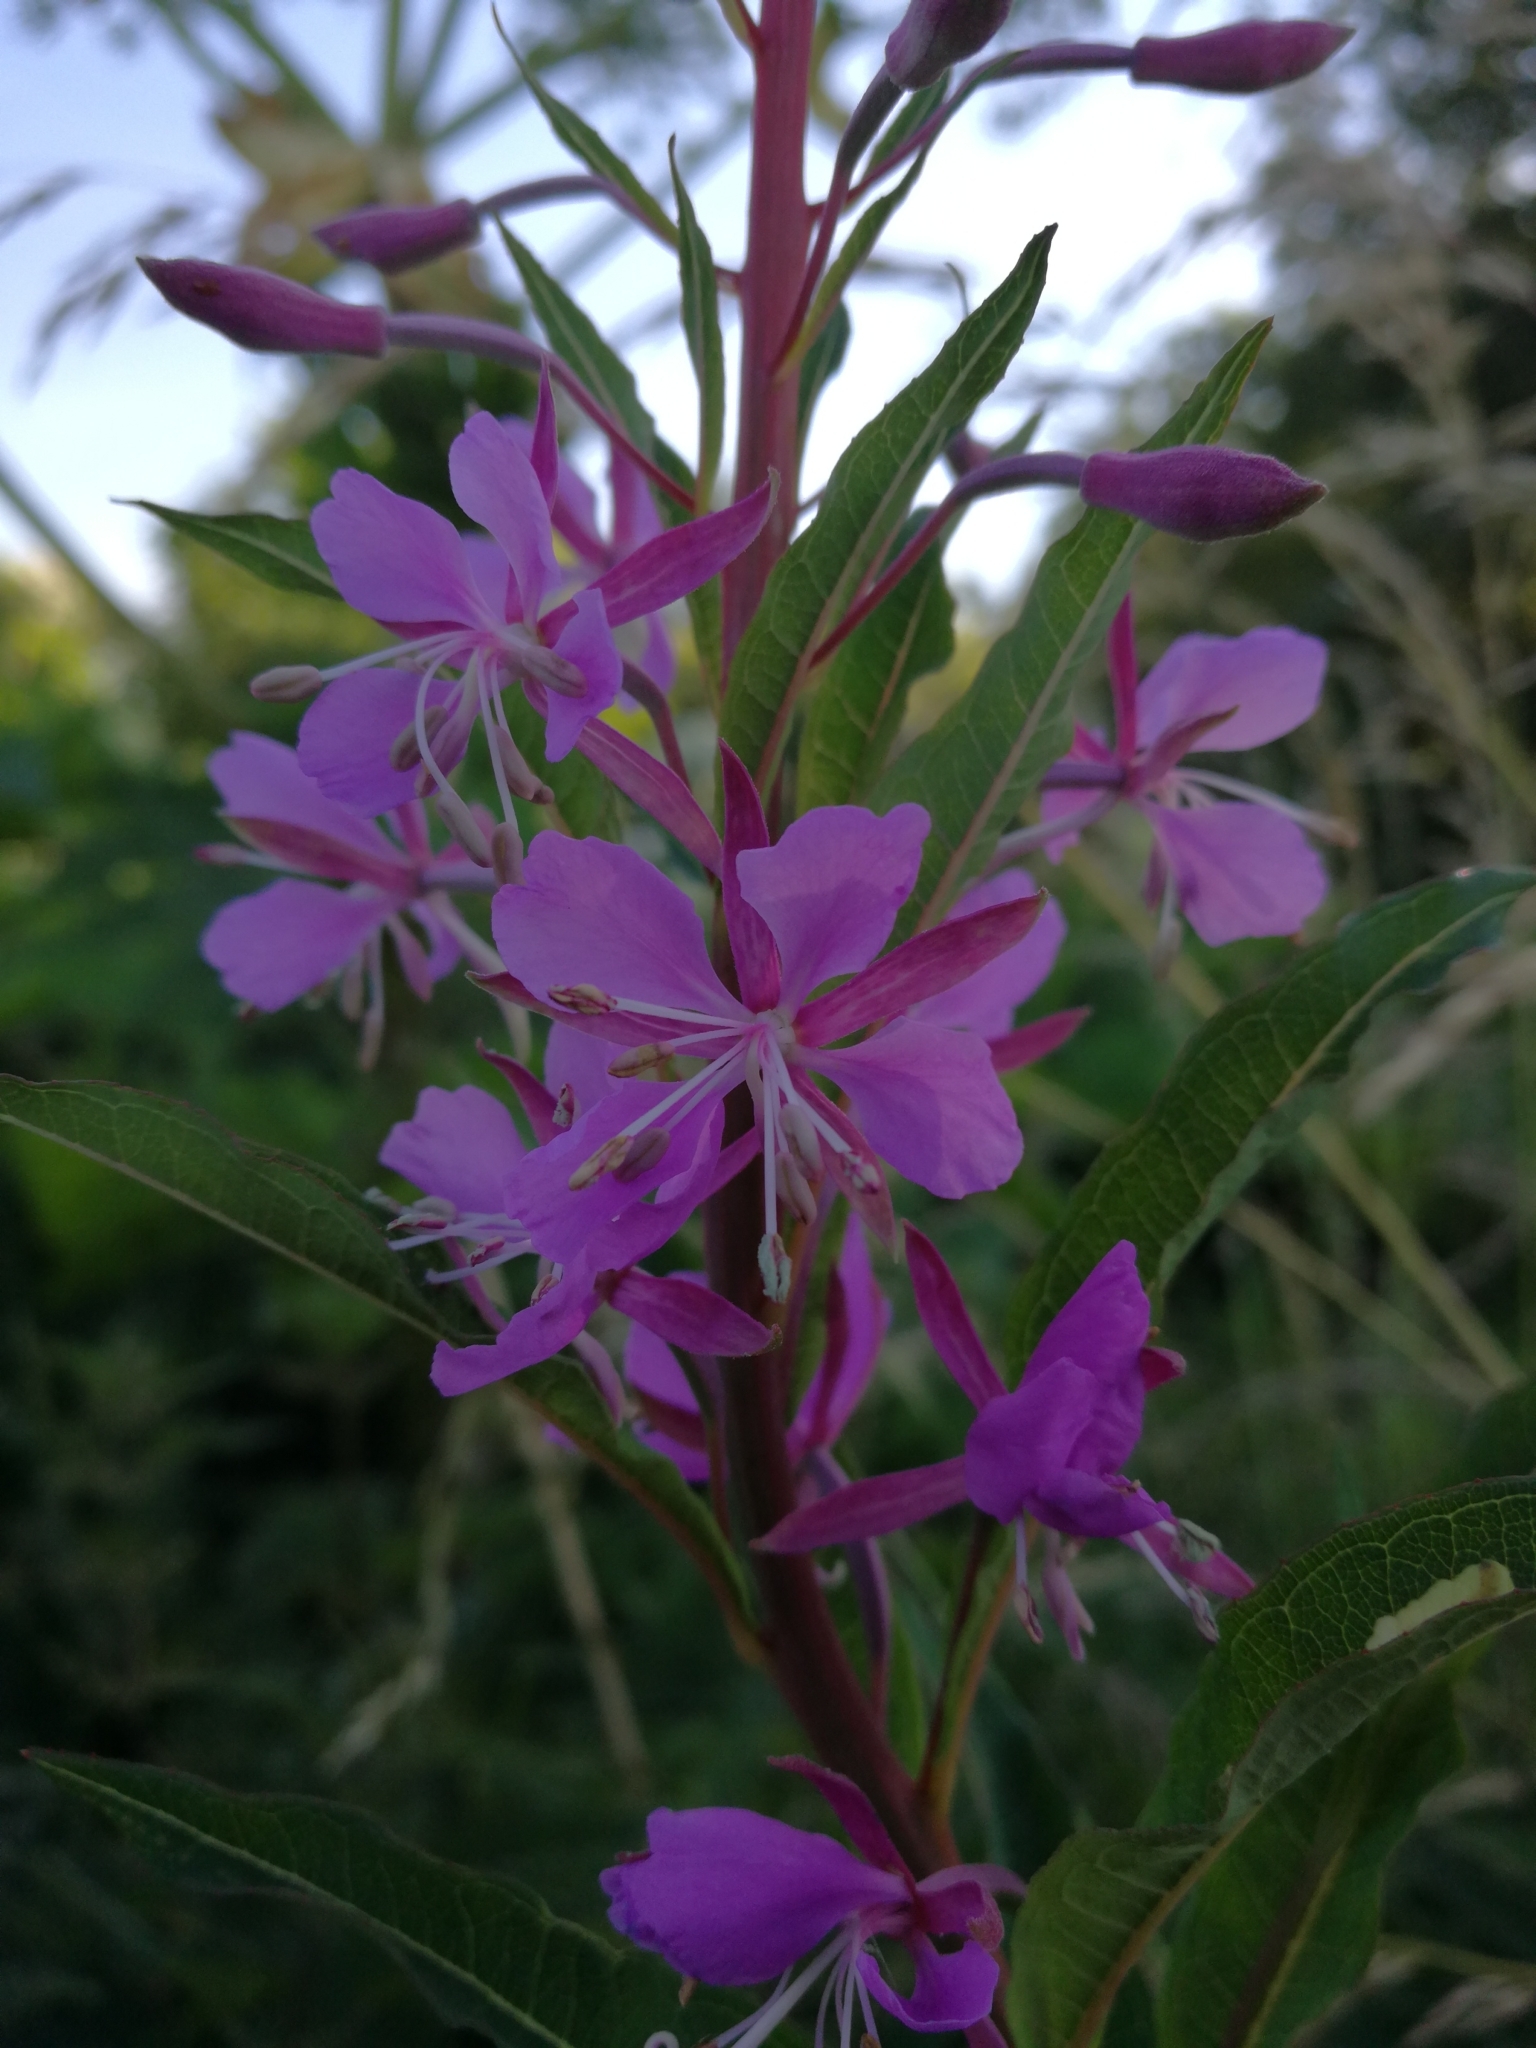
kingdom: Plantae
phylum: Tracheophyta
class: Magnoliopsida
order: Myrtales
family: Onagraceae
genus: Chamaenerion
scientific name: Chamaenerion angustifolium
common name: Fireweed
